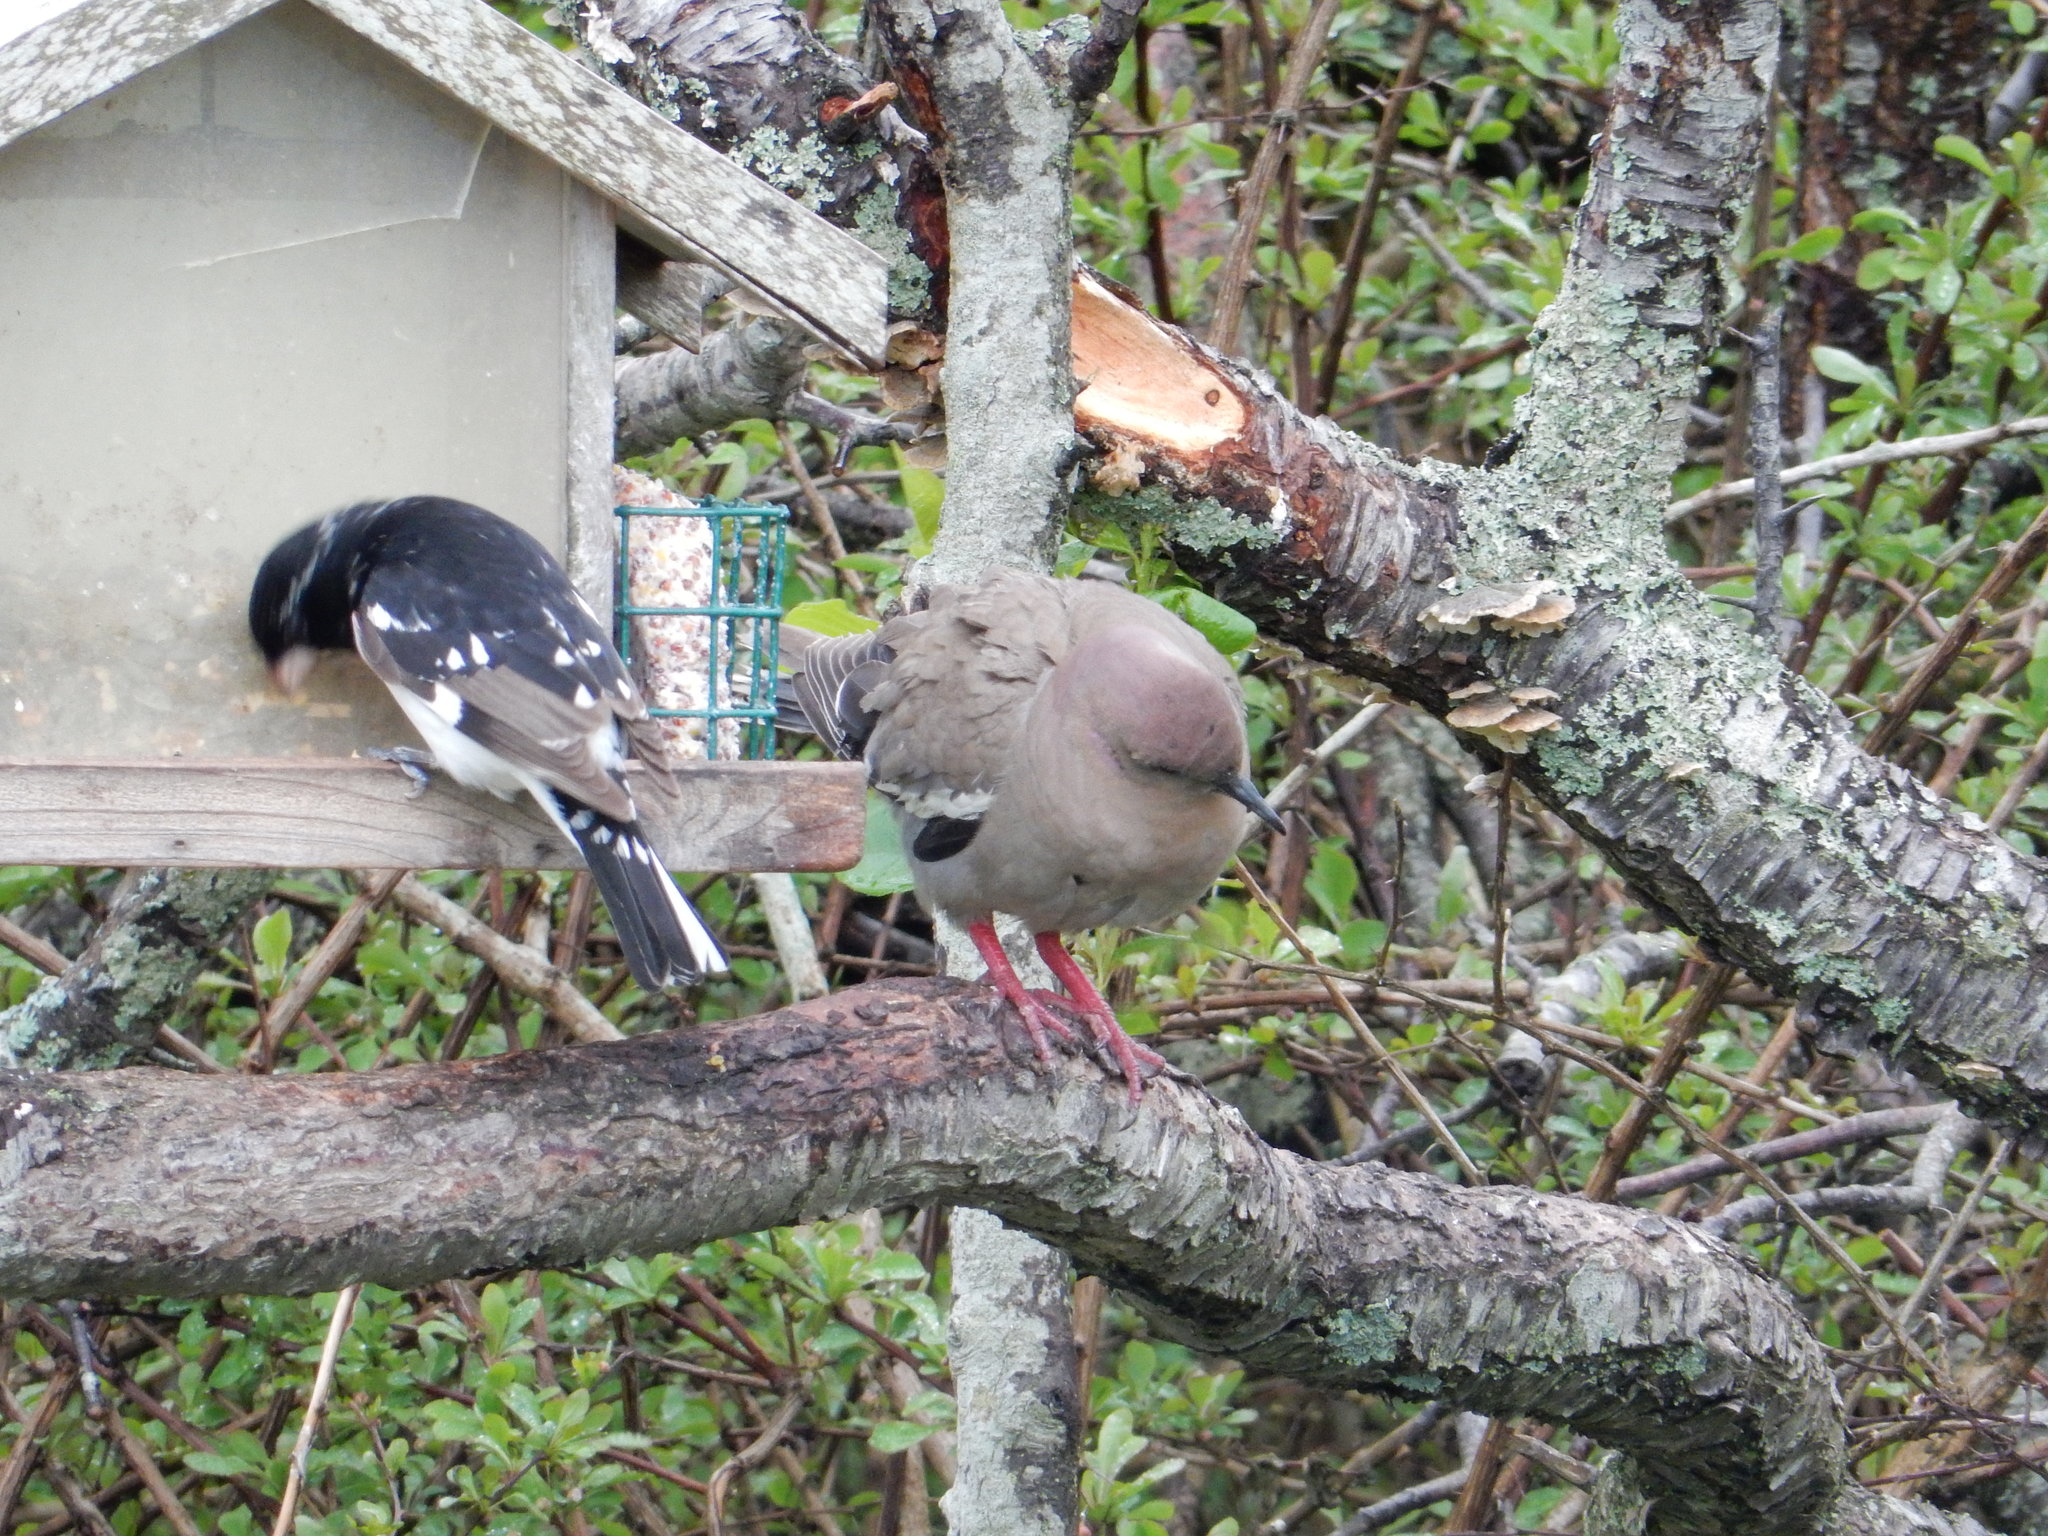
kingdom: Animalia
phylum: Chordata
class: Aves
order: Columbiformes
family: Columbidae
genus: Zenaida
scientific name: Zenaida asiatica
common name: White-winged dove
